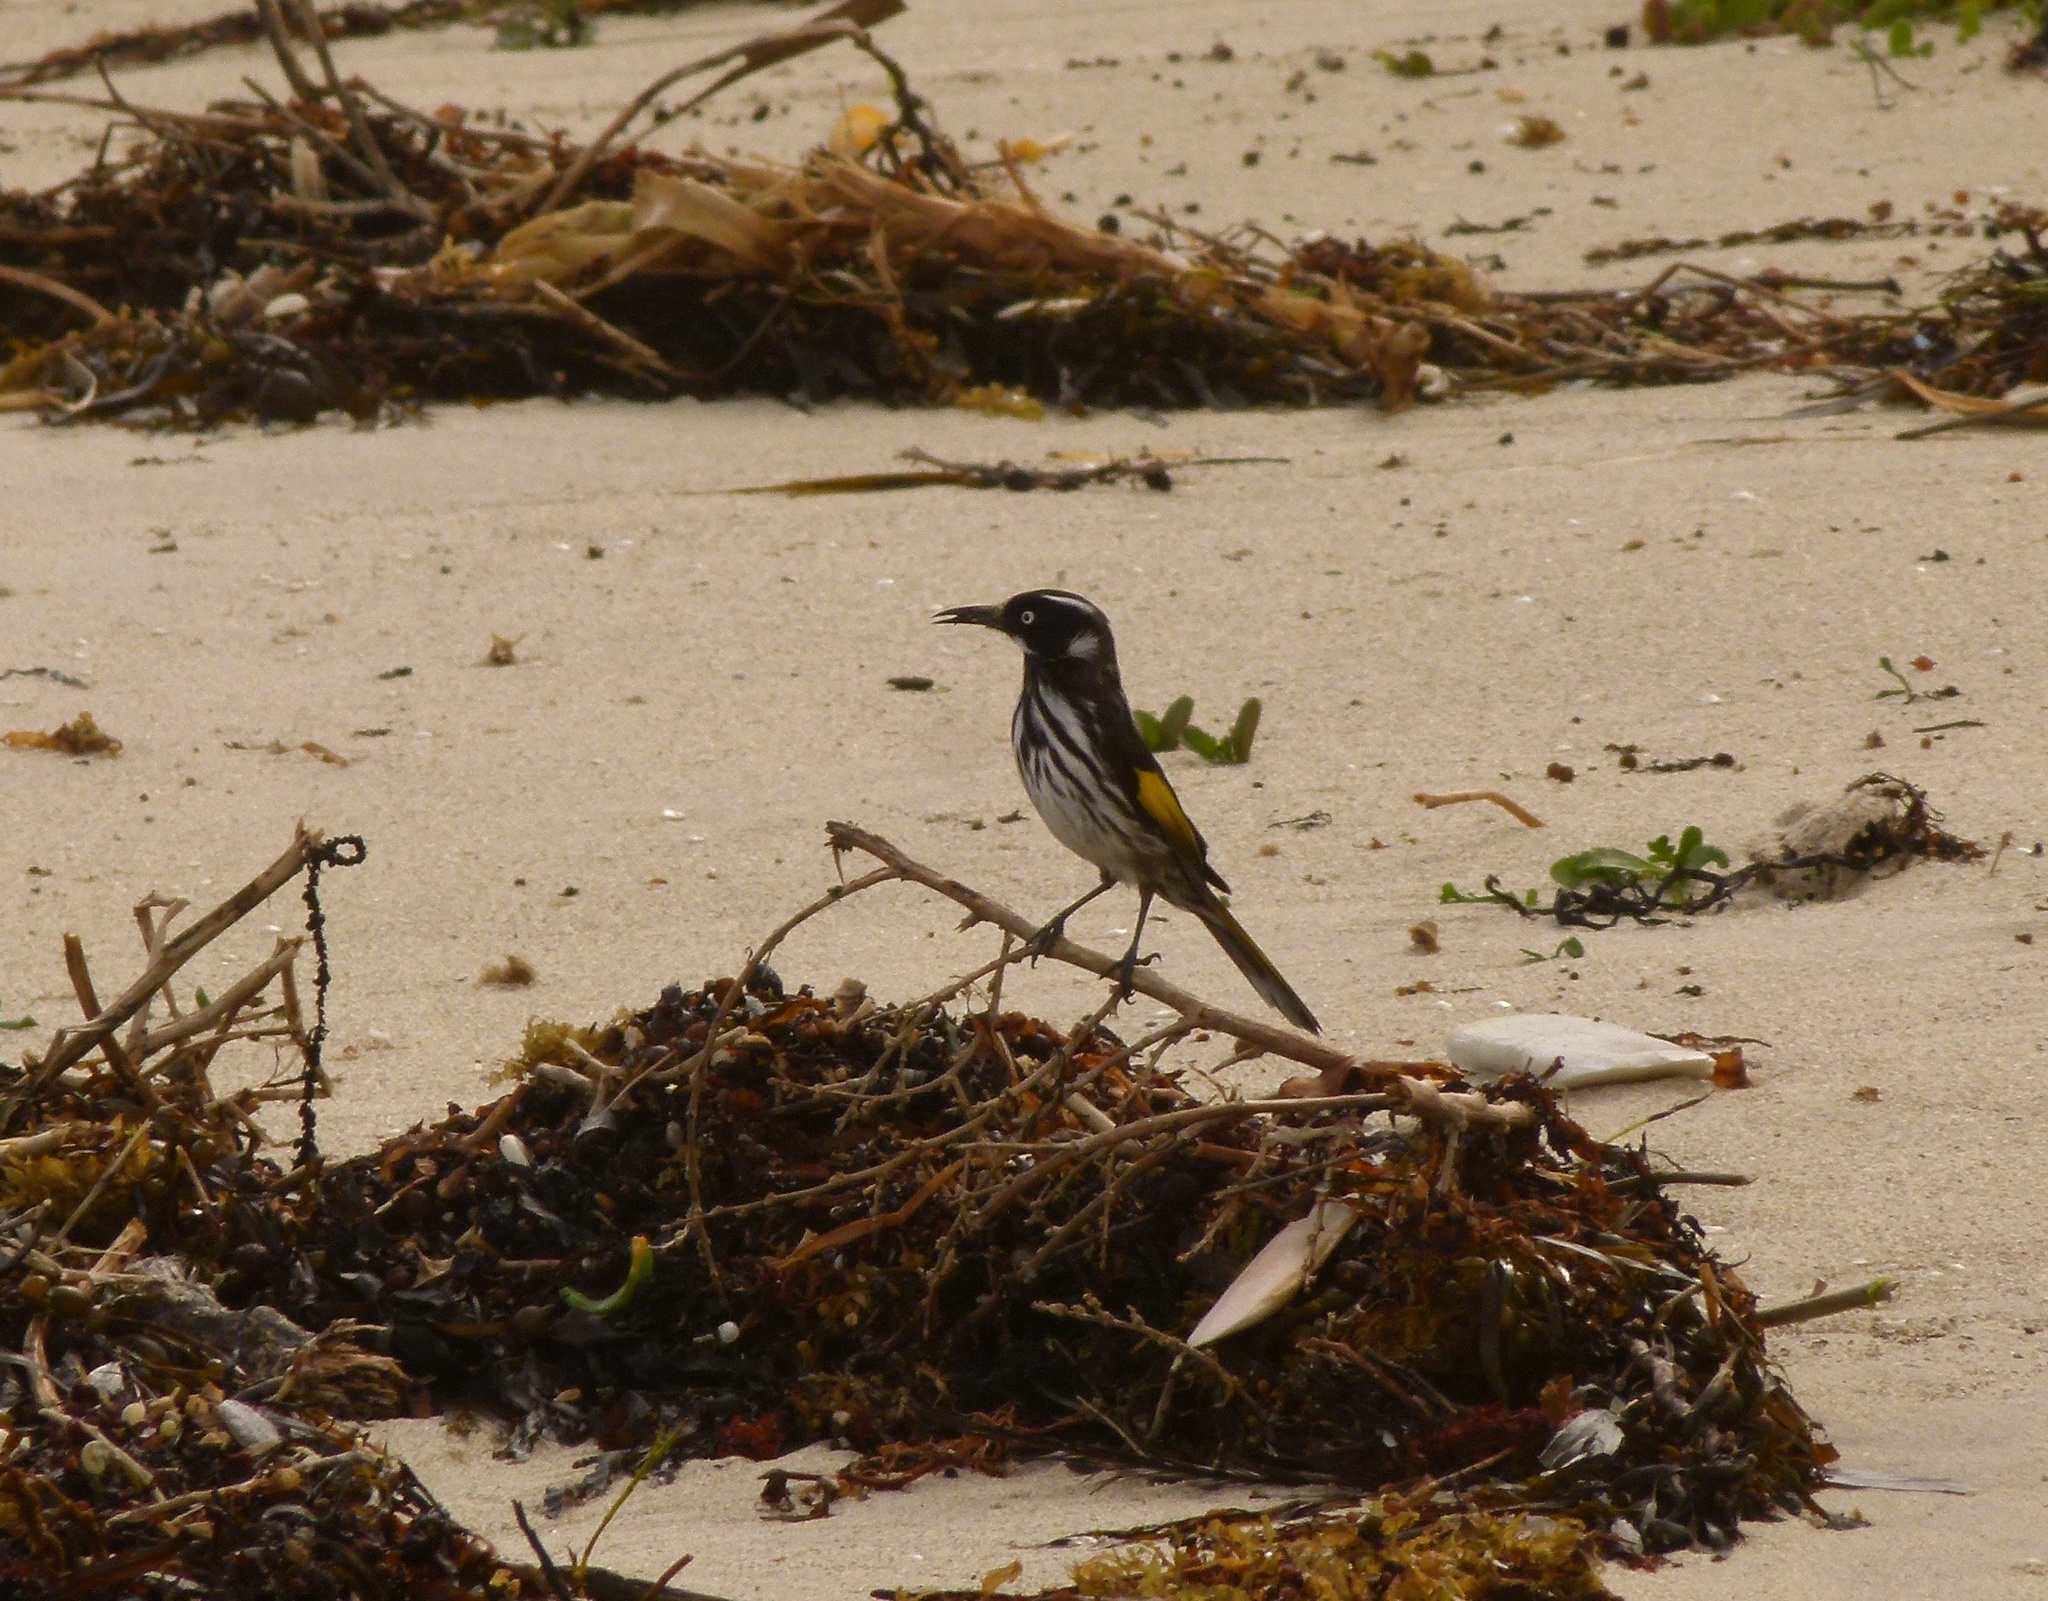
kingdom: Animalia
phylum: Chordata
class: Aves
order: Passeriformes
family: Meliphagidae
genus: Phylidonyris
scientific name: Phylidonyris novaehollandiae
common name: New holland honeyeater
